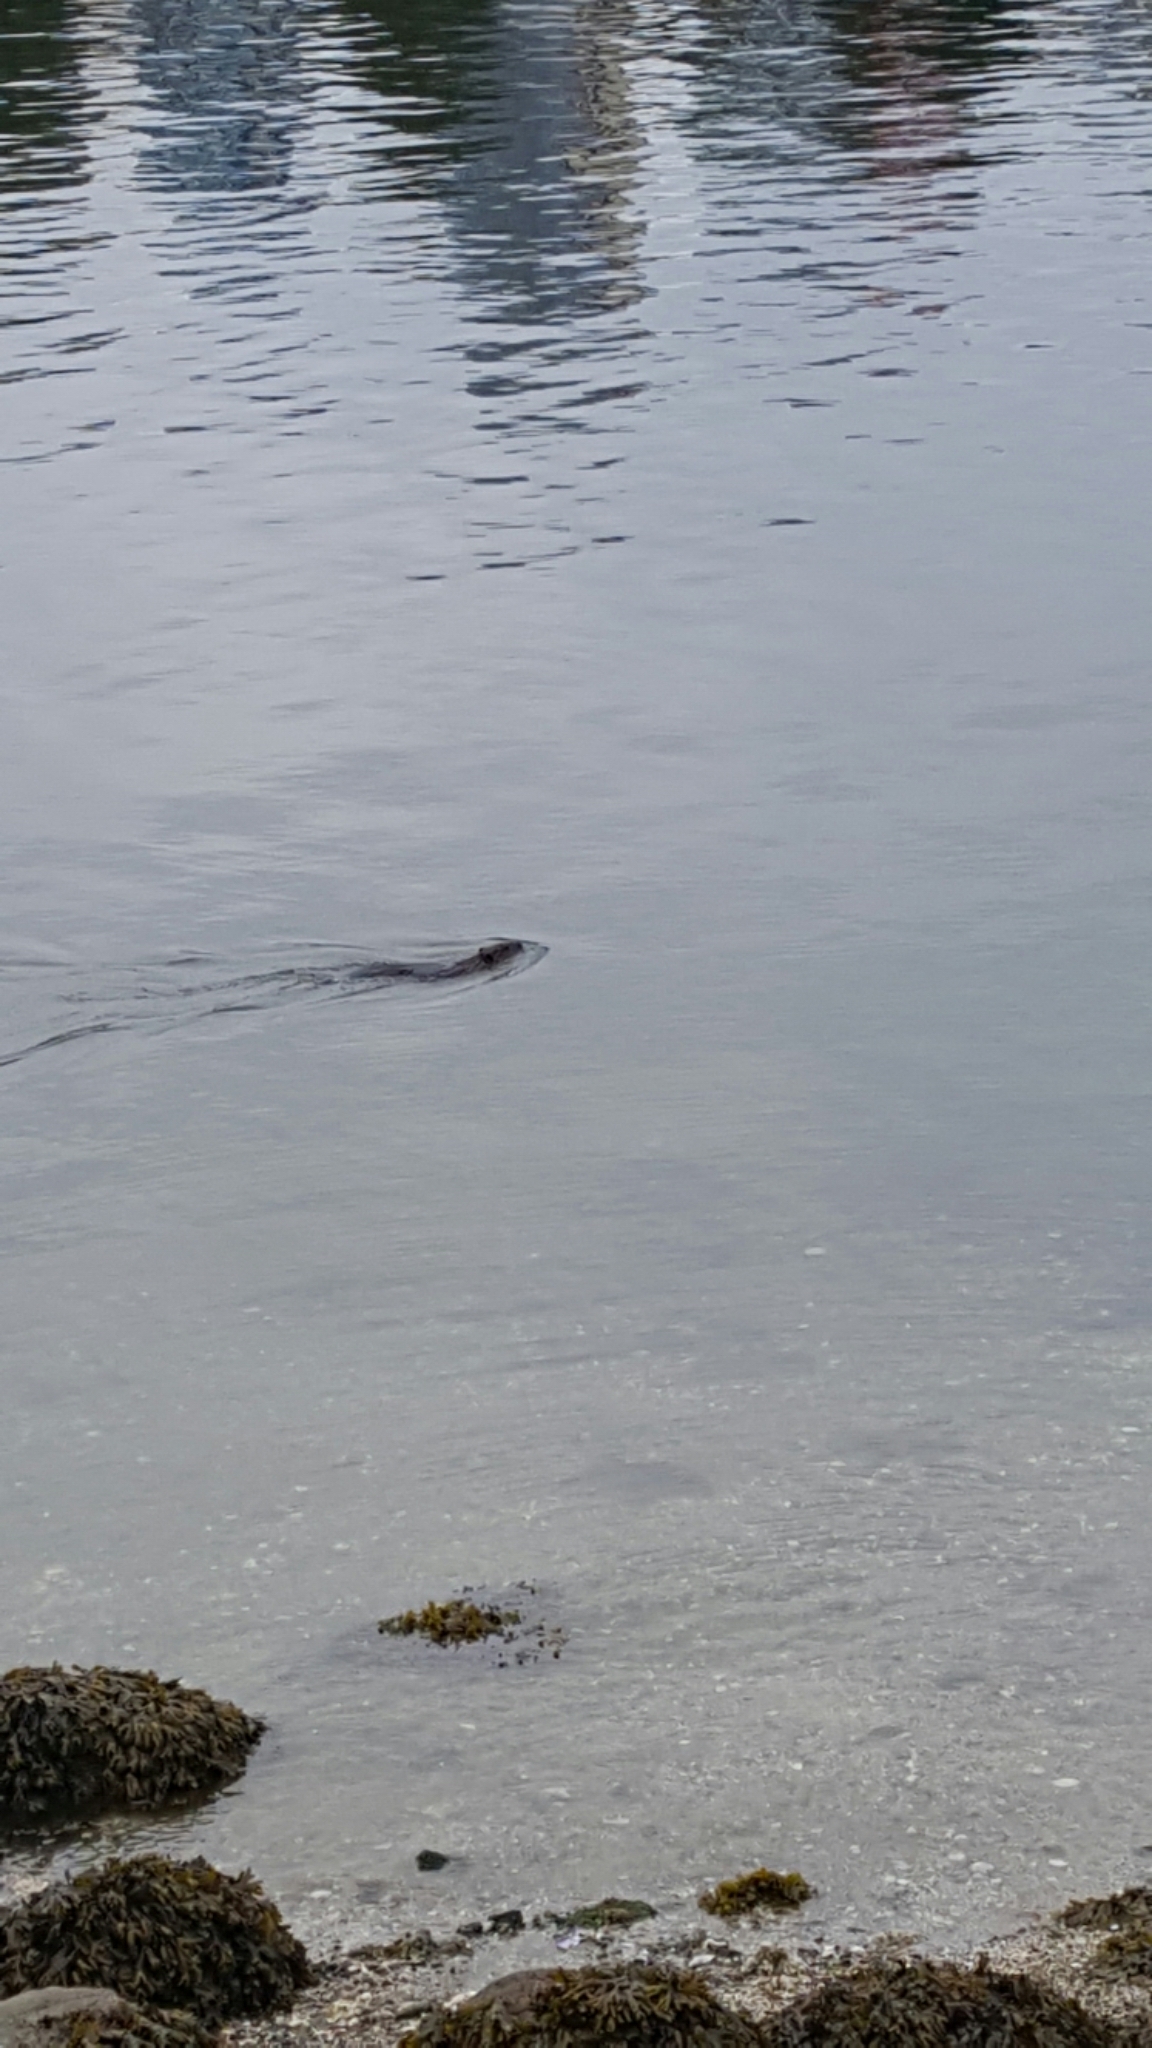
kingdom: Animalia
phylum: Chordata
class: Mammalia
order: Rodentia
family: Castoridae
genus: Castor
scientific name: Castor canadensis
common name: American beaver
